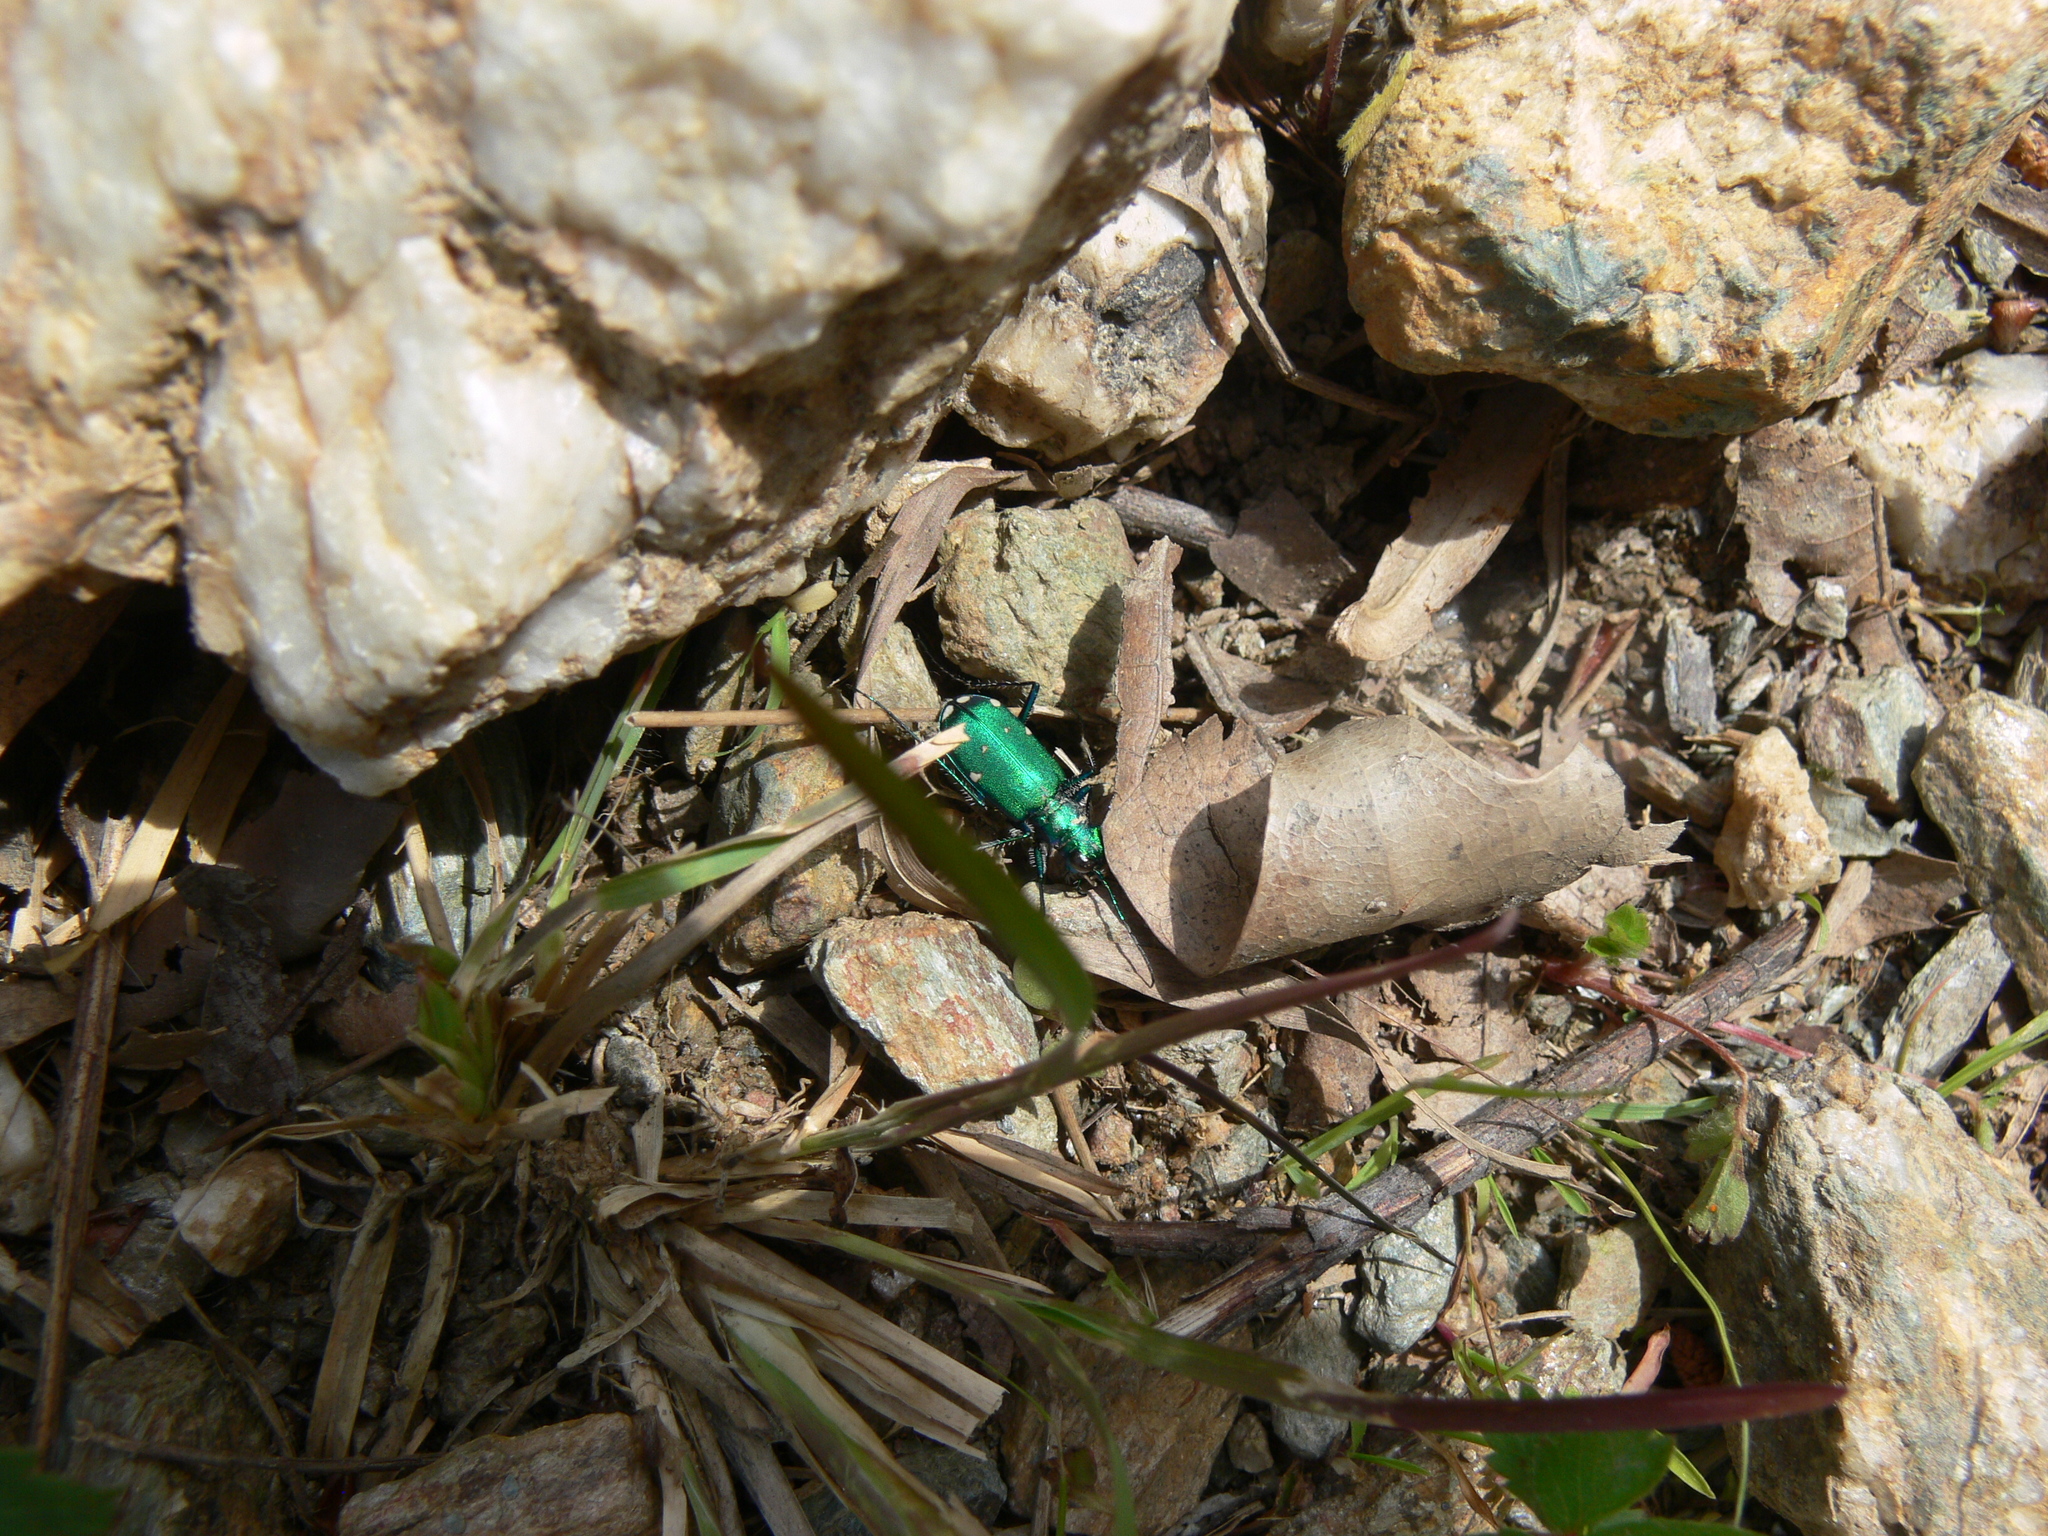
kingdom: Animalia
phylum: Arthropoda
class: Insecta
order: Coleoptera
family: Carabidae
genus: Cicindela
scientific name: Cicindela sexguttata
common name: Six-spotted tiger beetle
